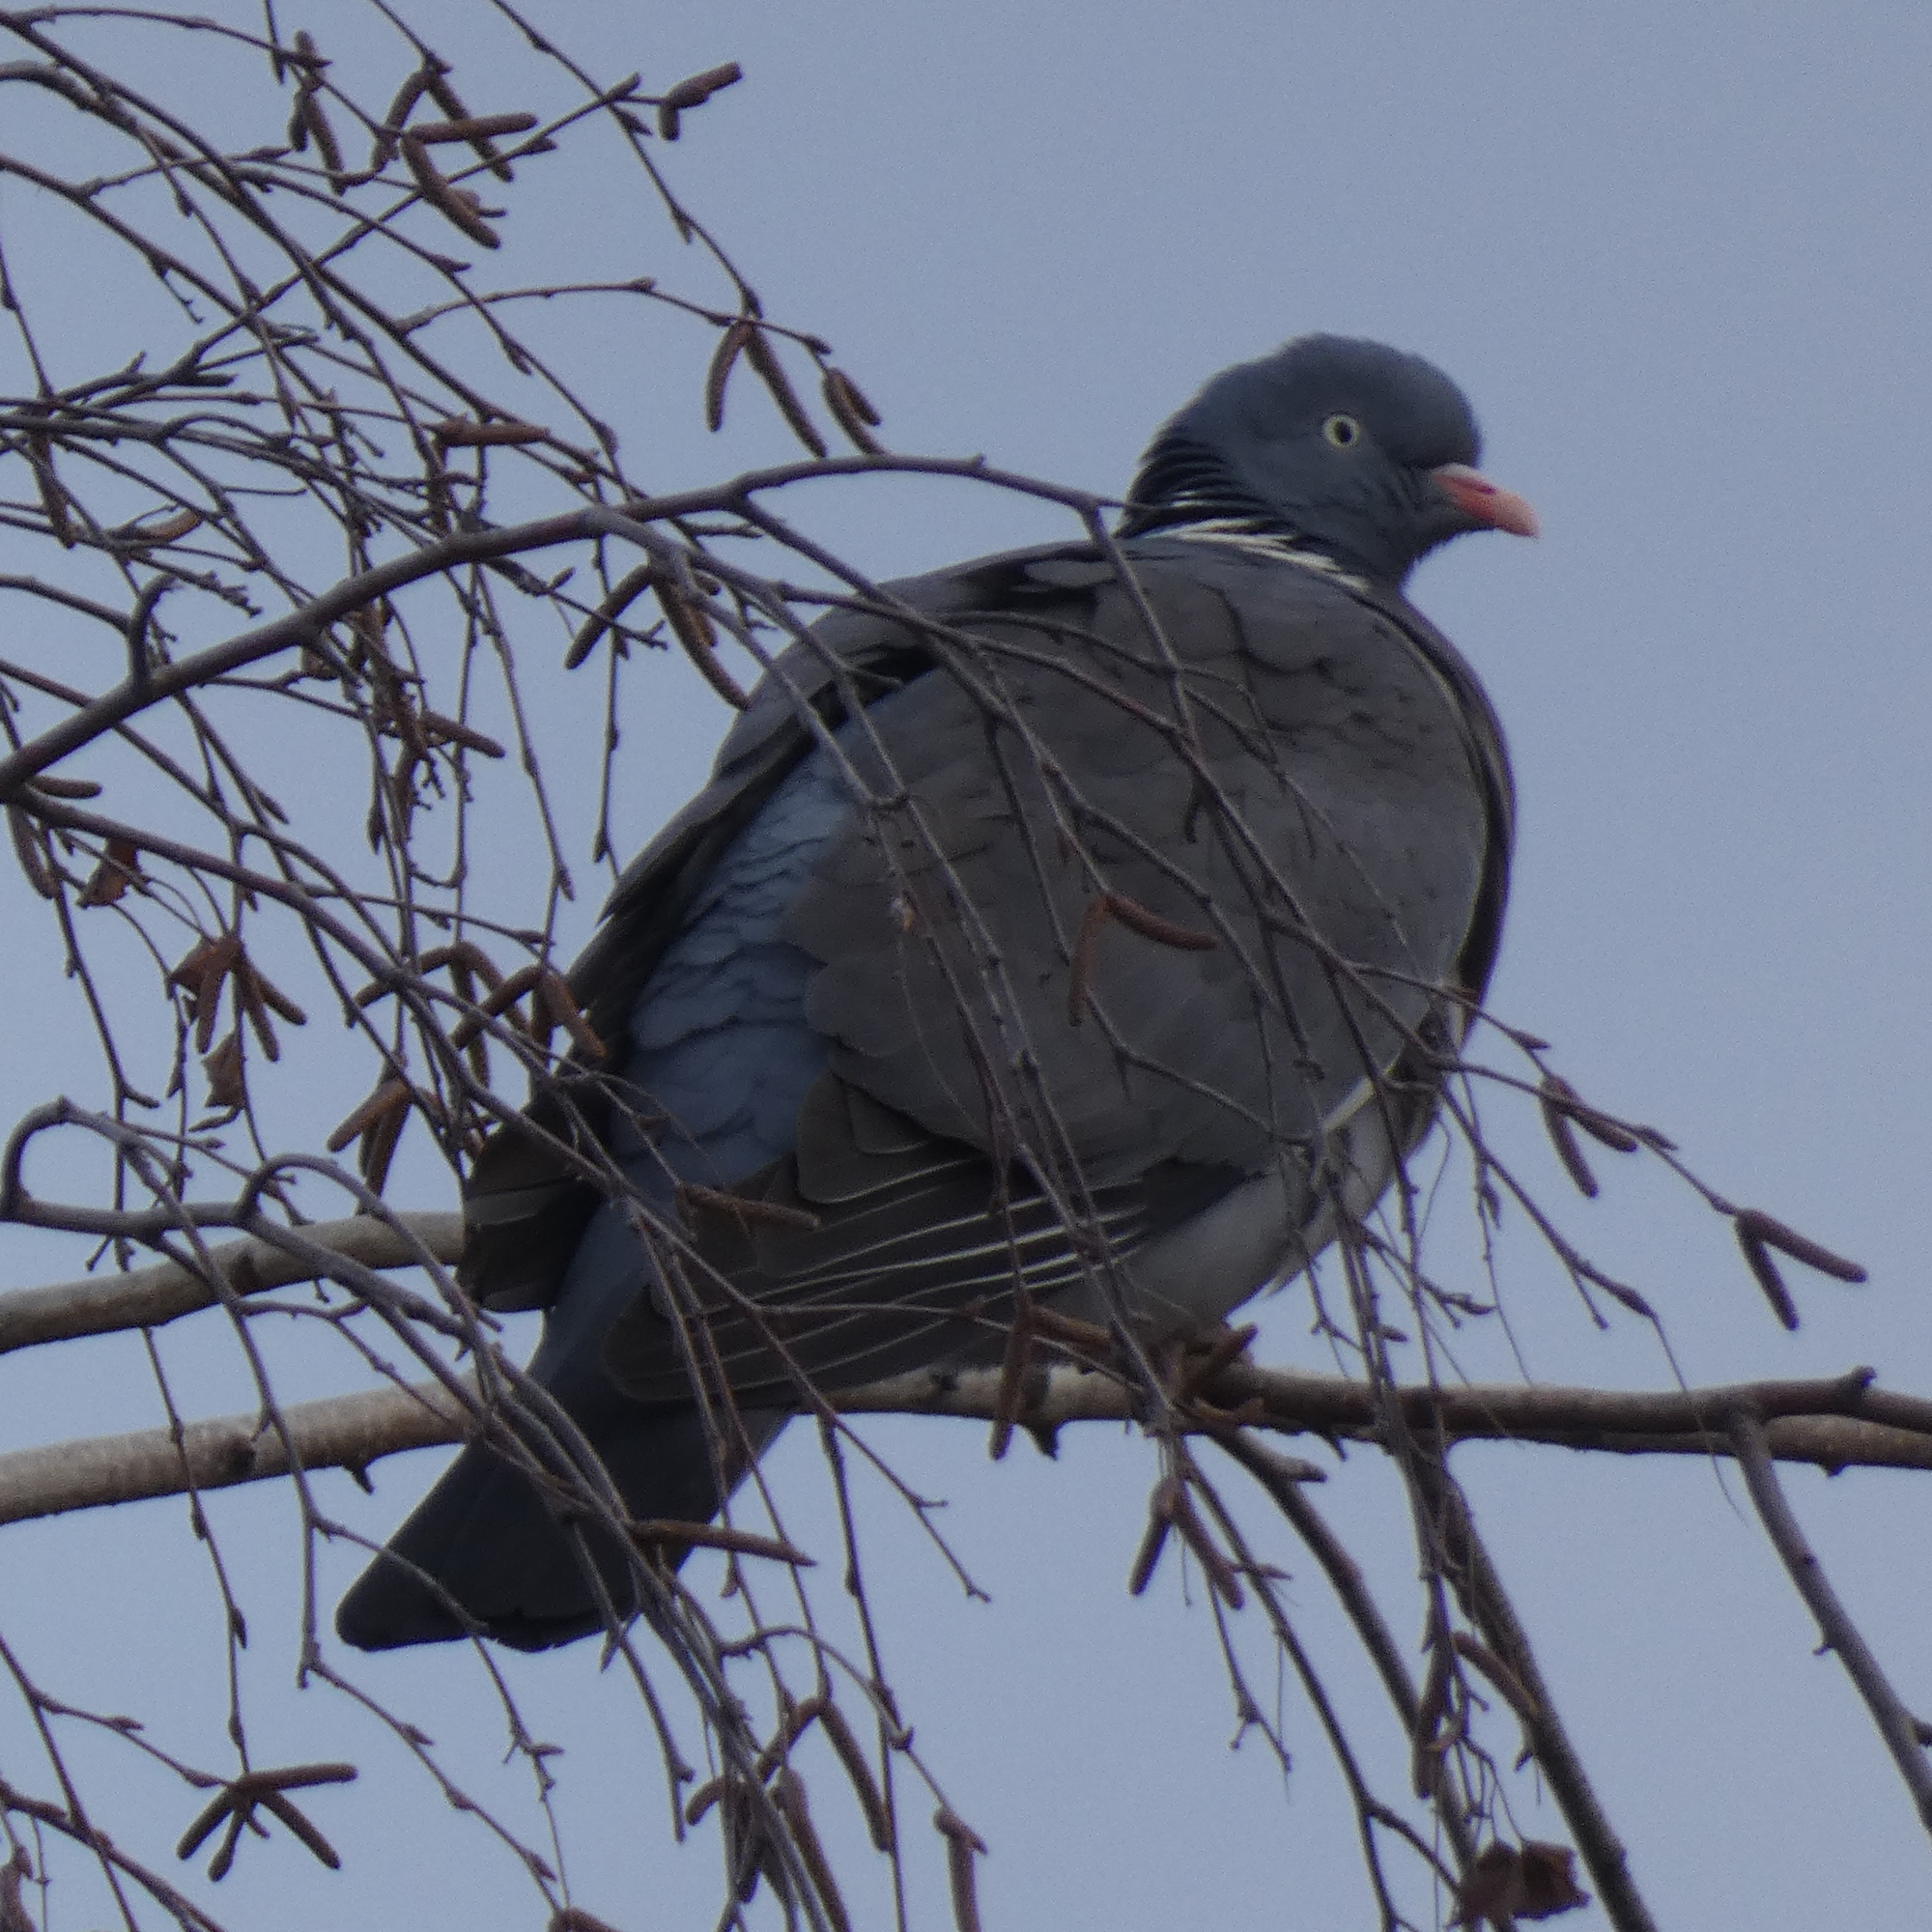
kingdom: Animalia
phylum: Chordata
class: Aves
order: Columbiformes
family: Columbidae
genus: Columba
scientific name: Columba palumbus
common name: Common wood pigeon
